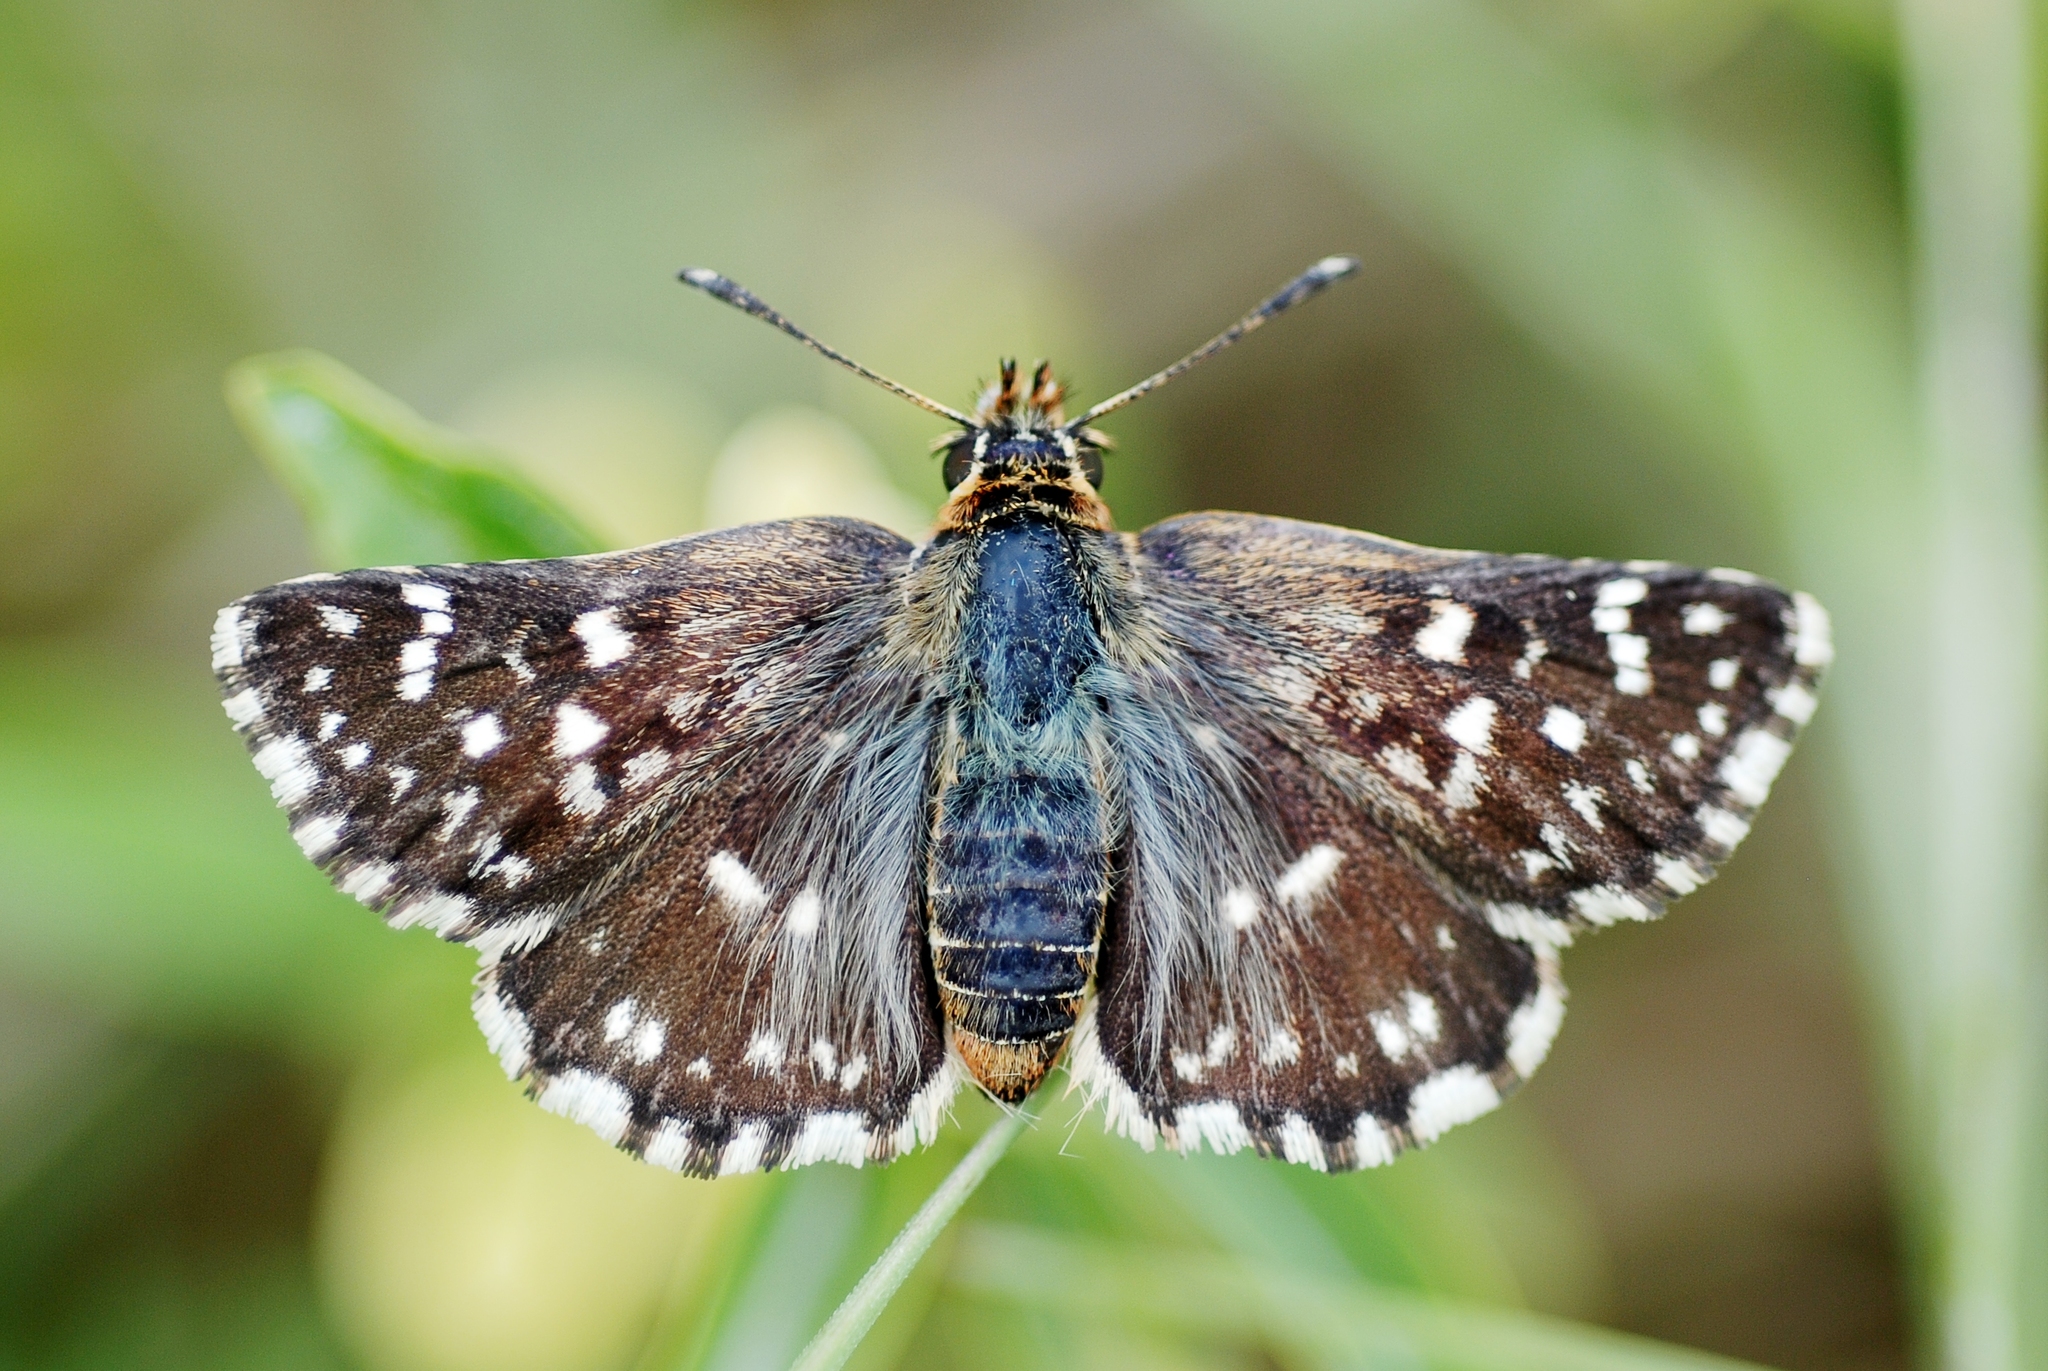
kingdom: Animalia
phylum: Arthropoda
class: Insecta
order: Lepidoptera
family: Hesperiidae
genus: Spialia
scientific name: Spialia sertorius
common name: Red underwing skipper
